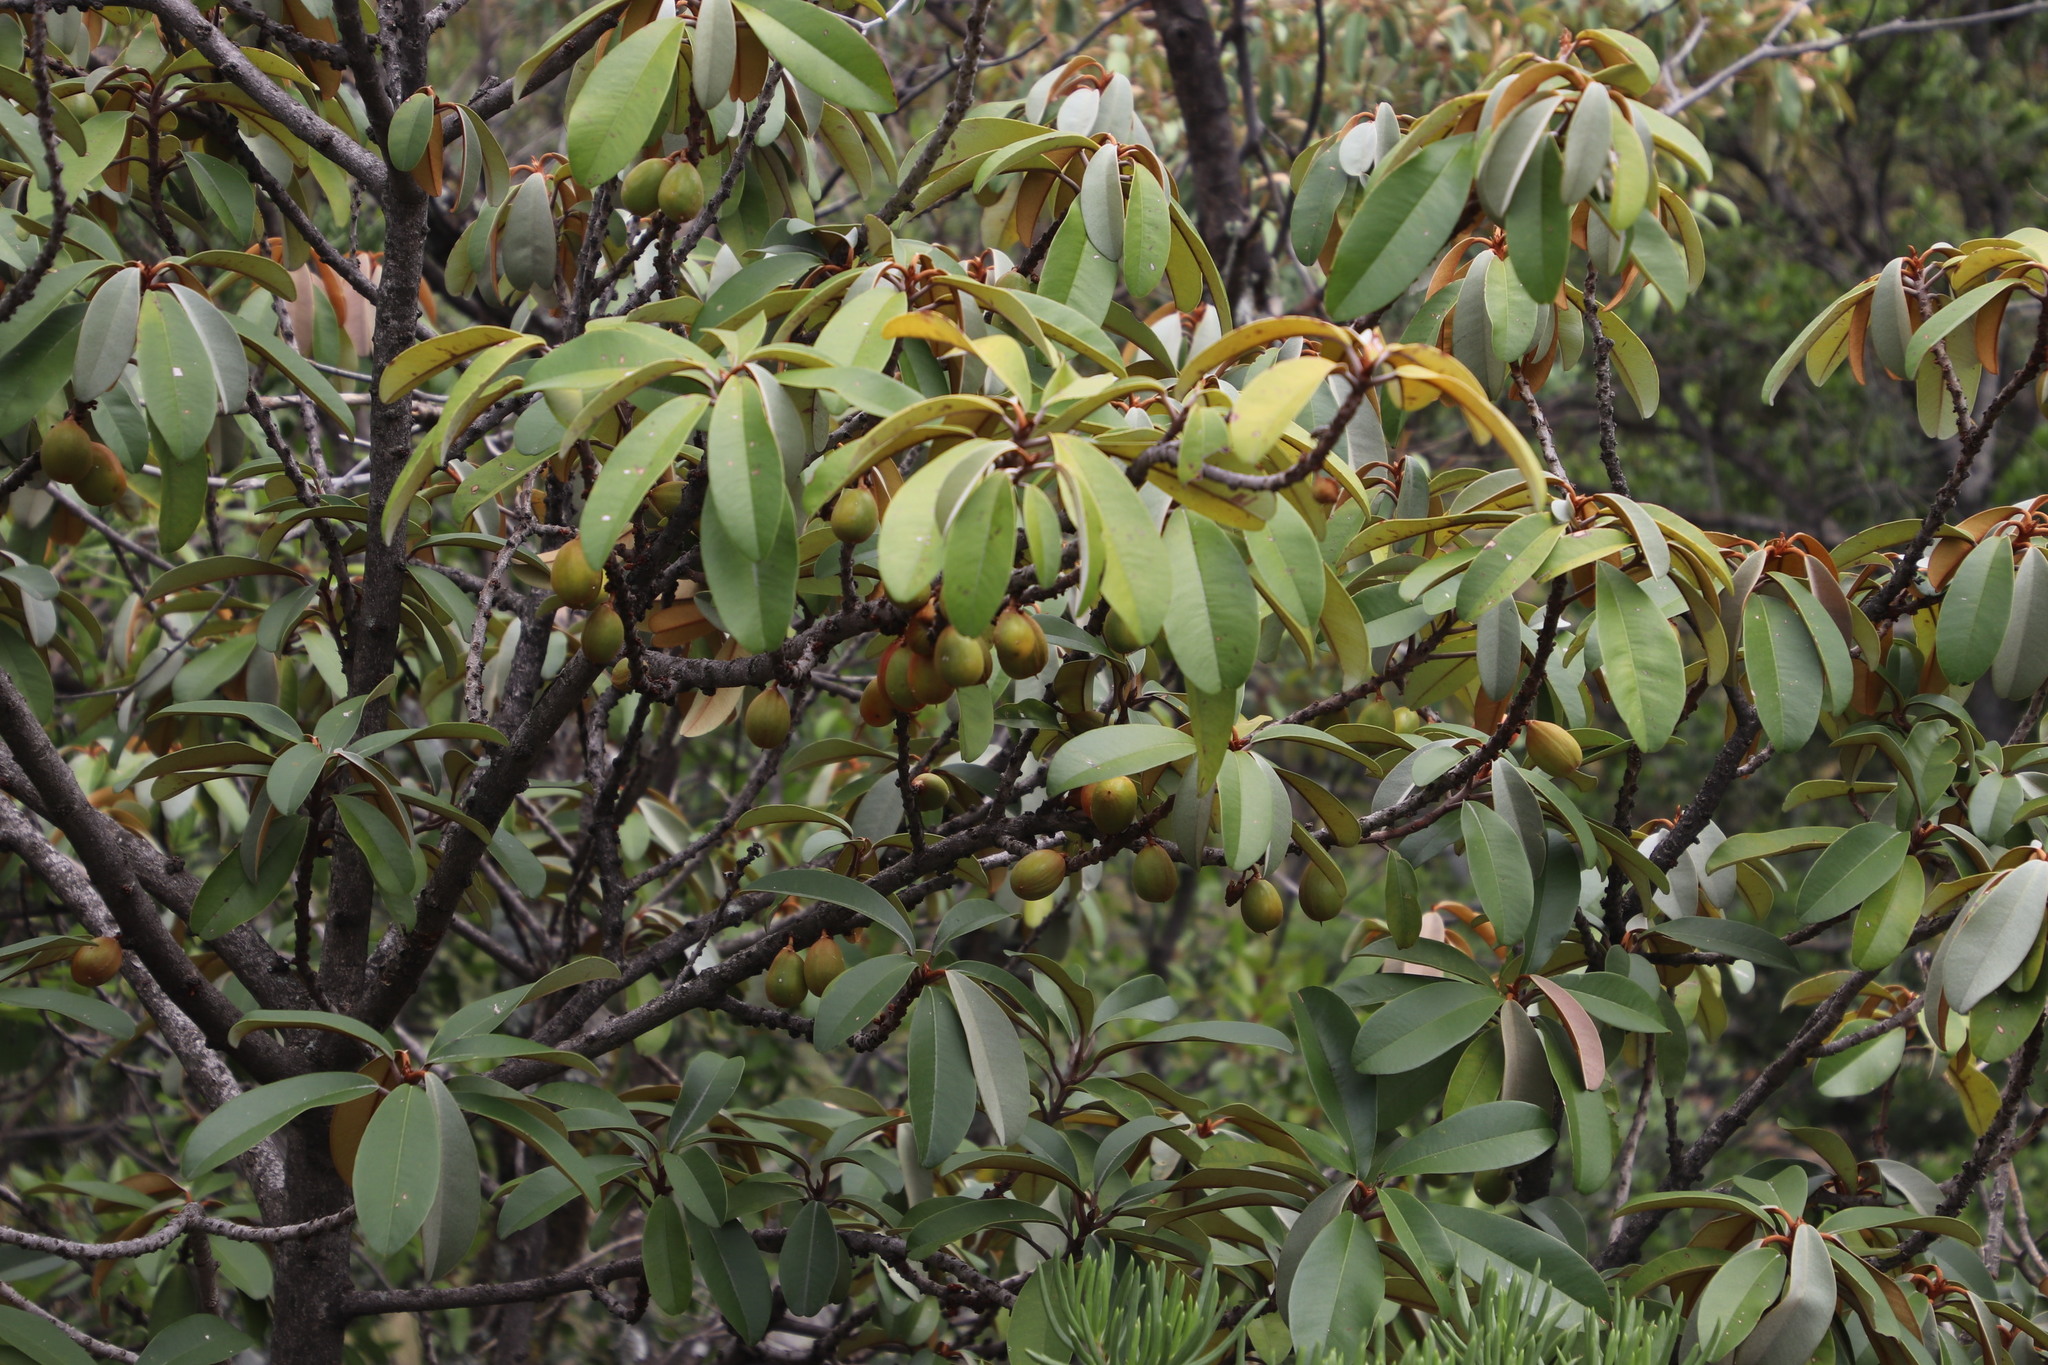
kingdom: Plantae
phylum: Tracheophyta
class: Magnoliopsida
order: Ericales
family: Sapotaceae
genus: Englerophytum
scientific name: Englerophytum magalismontanum
